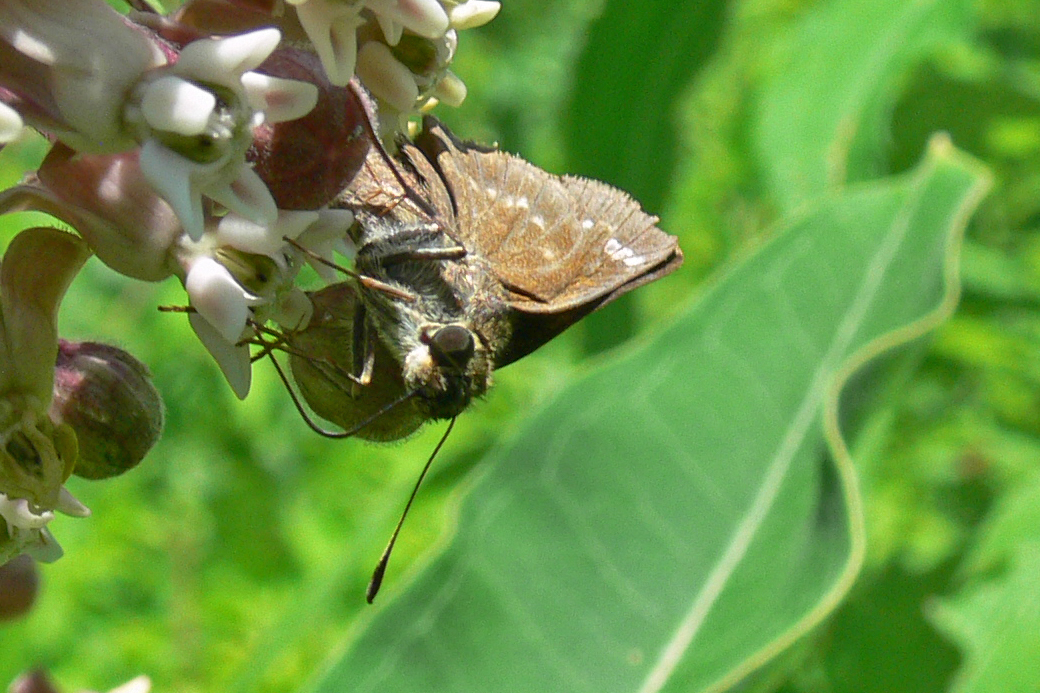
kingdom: Animalia
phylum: Arthropoda
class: Insecta
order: Lepidoptera
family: Hesperiidae
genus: Vernia
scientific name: Vernia verna
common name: Little glassywing
